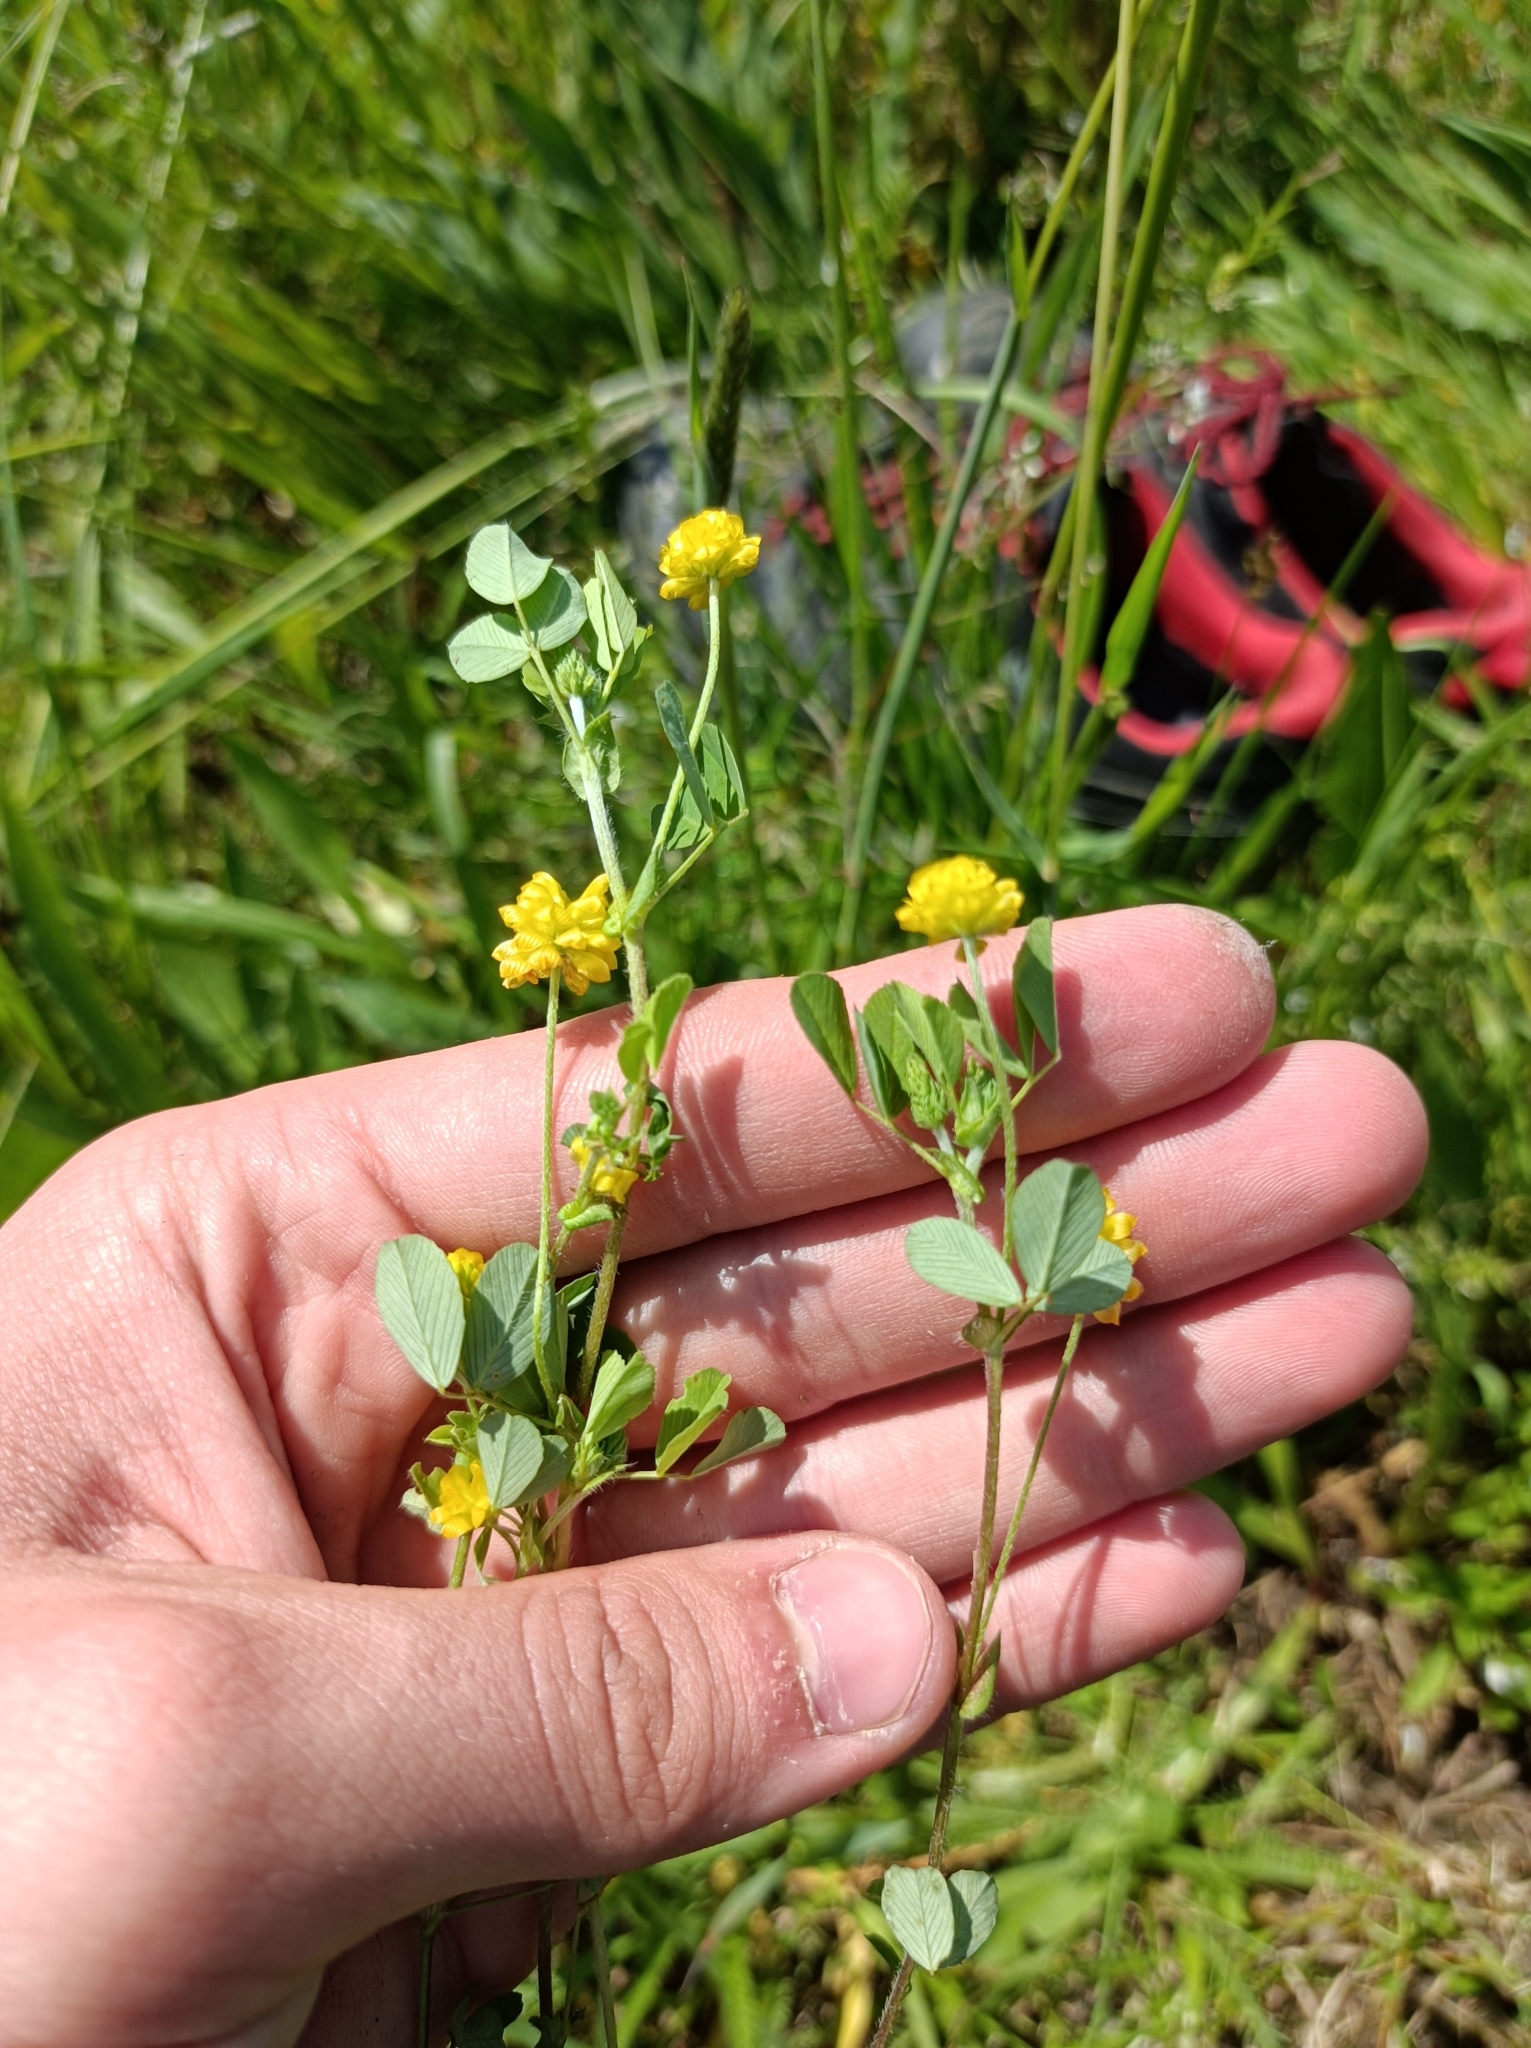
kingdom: Plantae
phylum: Tracheophyta
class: Magnoliopsida
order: Fabales
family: Fabaceae
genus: Trifolium
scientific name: Trifolium campestre
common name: Field clover
